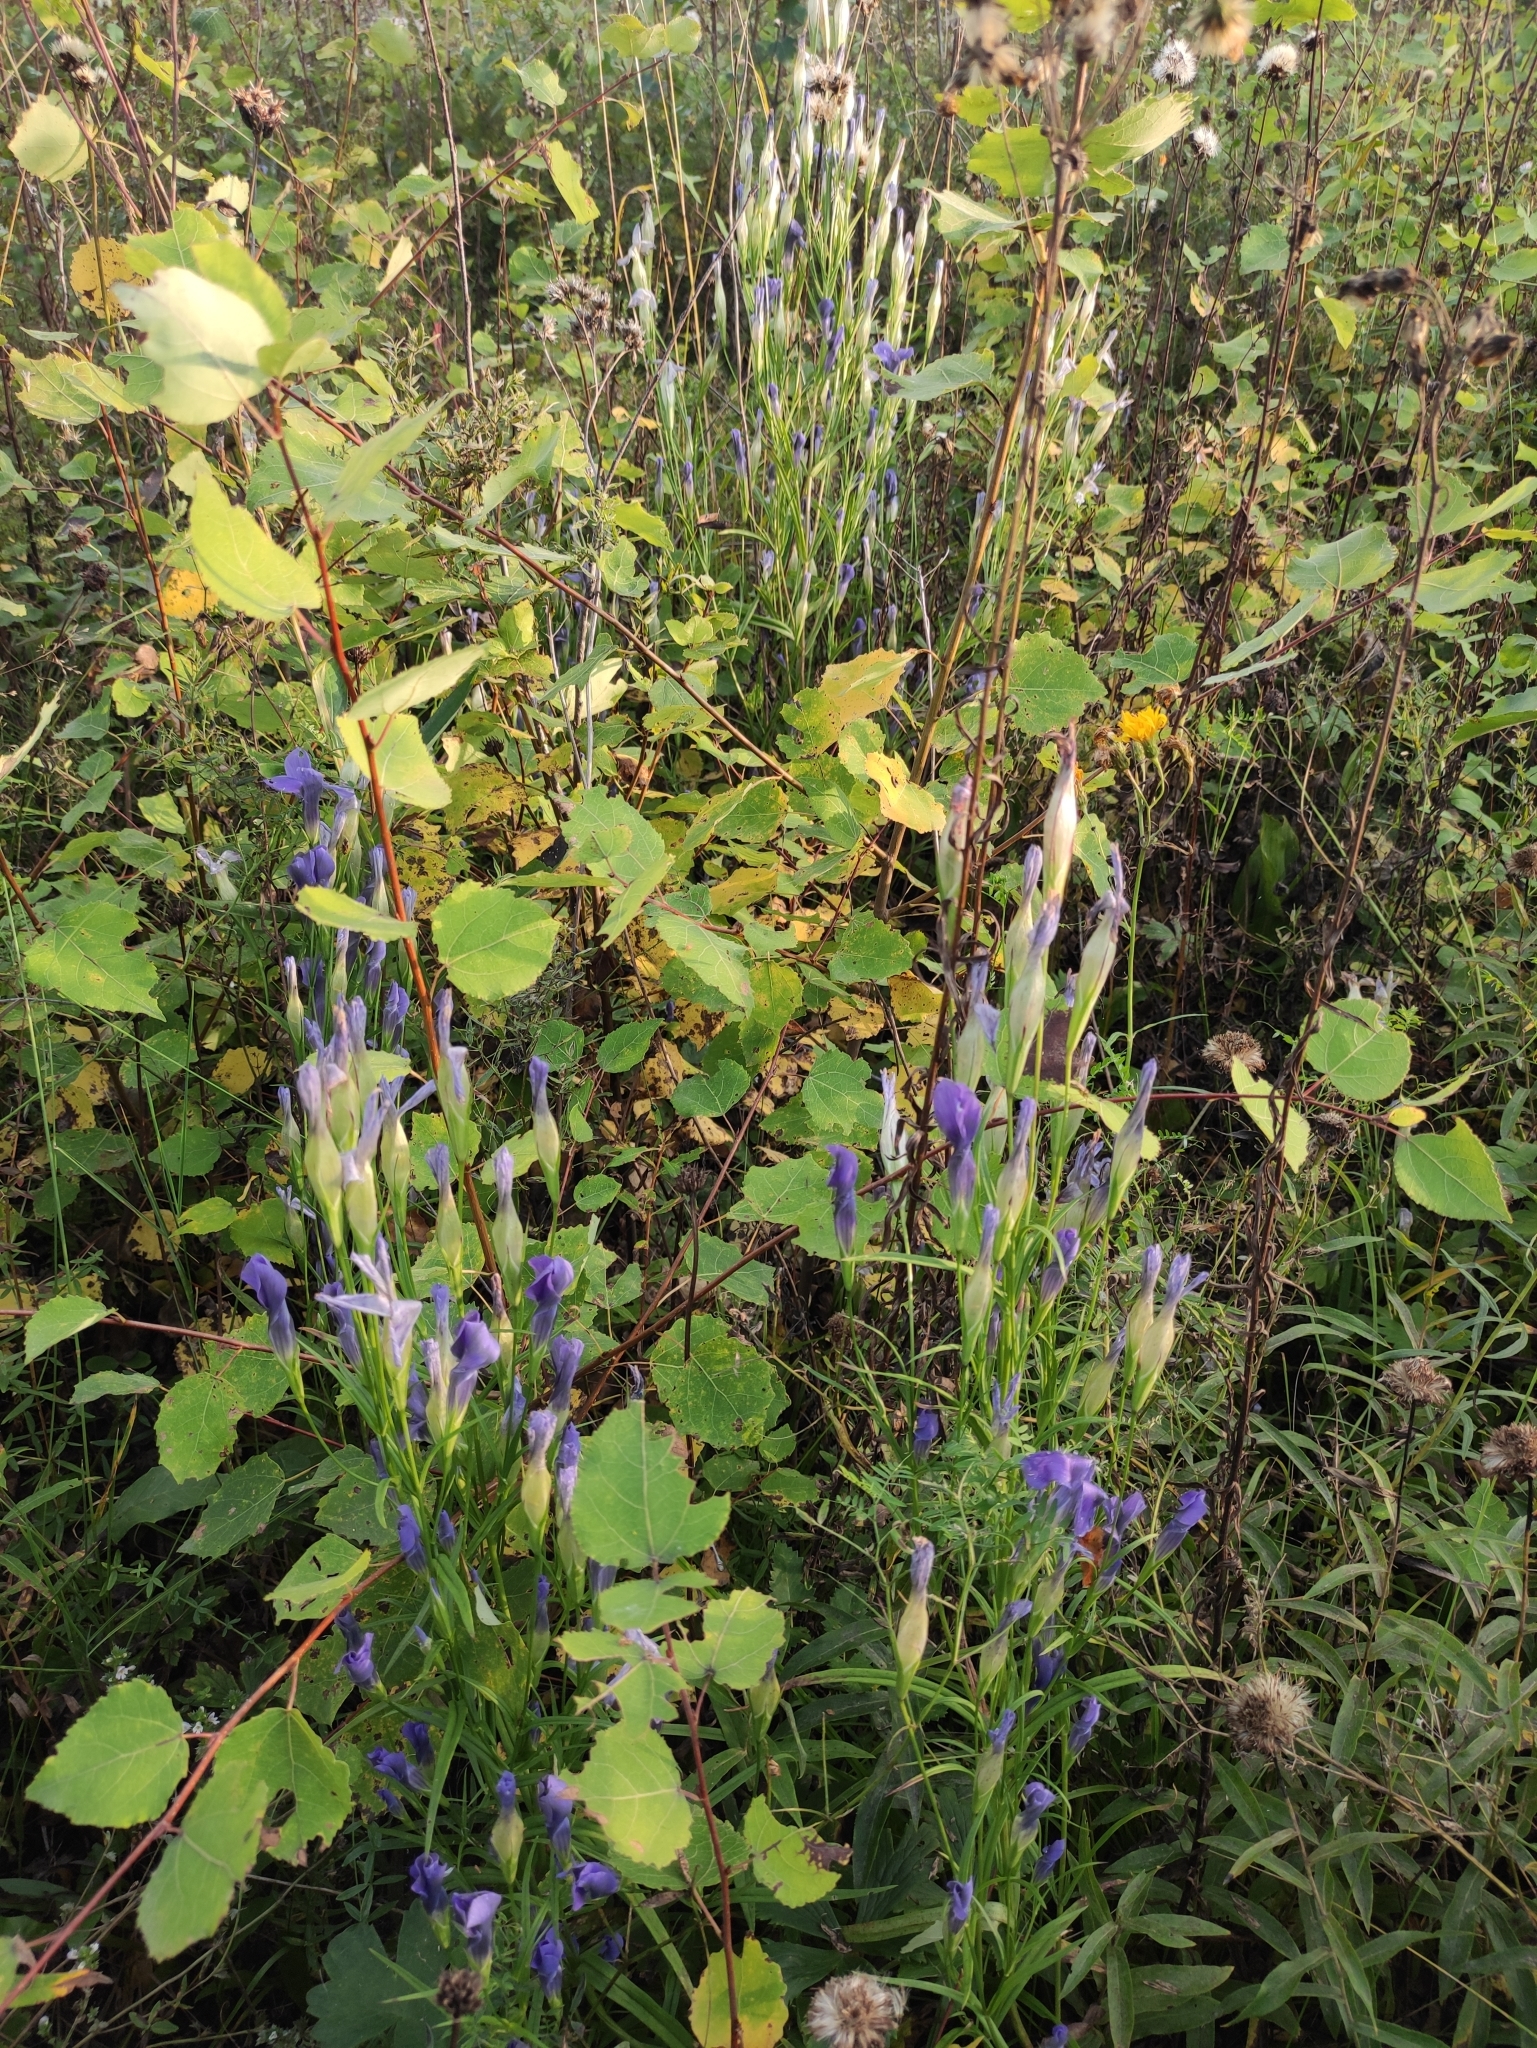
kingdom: Plantae
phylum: Tracheophyta
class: Magnoliopsida
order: Gentianales
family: Gentianaceae
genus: Gentianopsis
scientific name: Gentianopsis barbata
